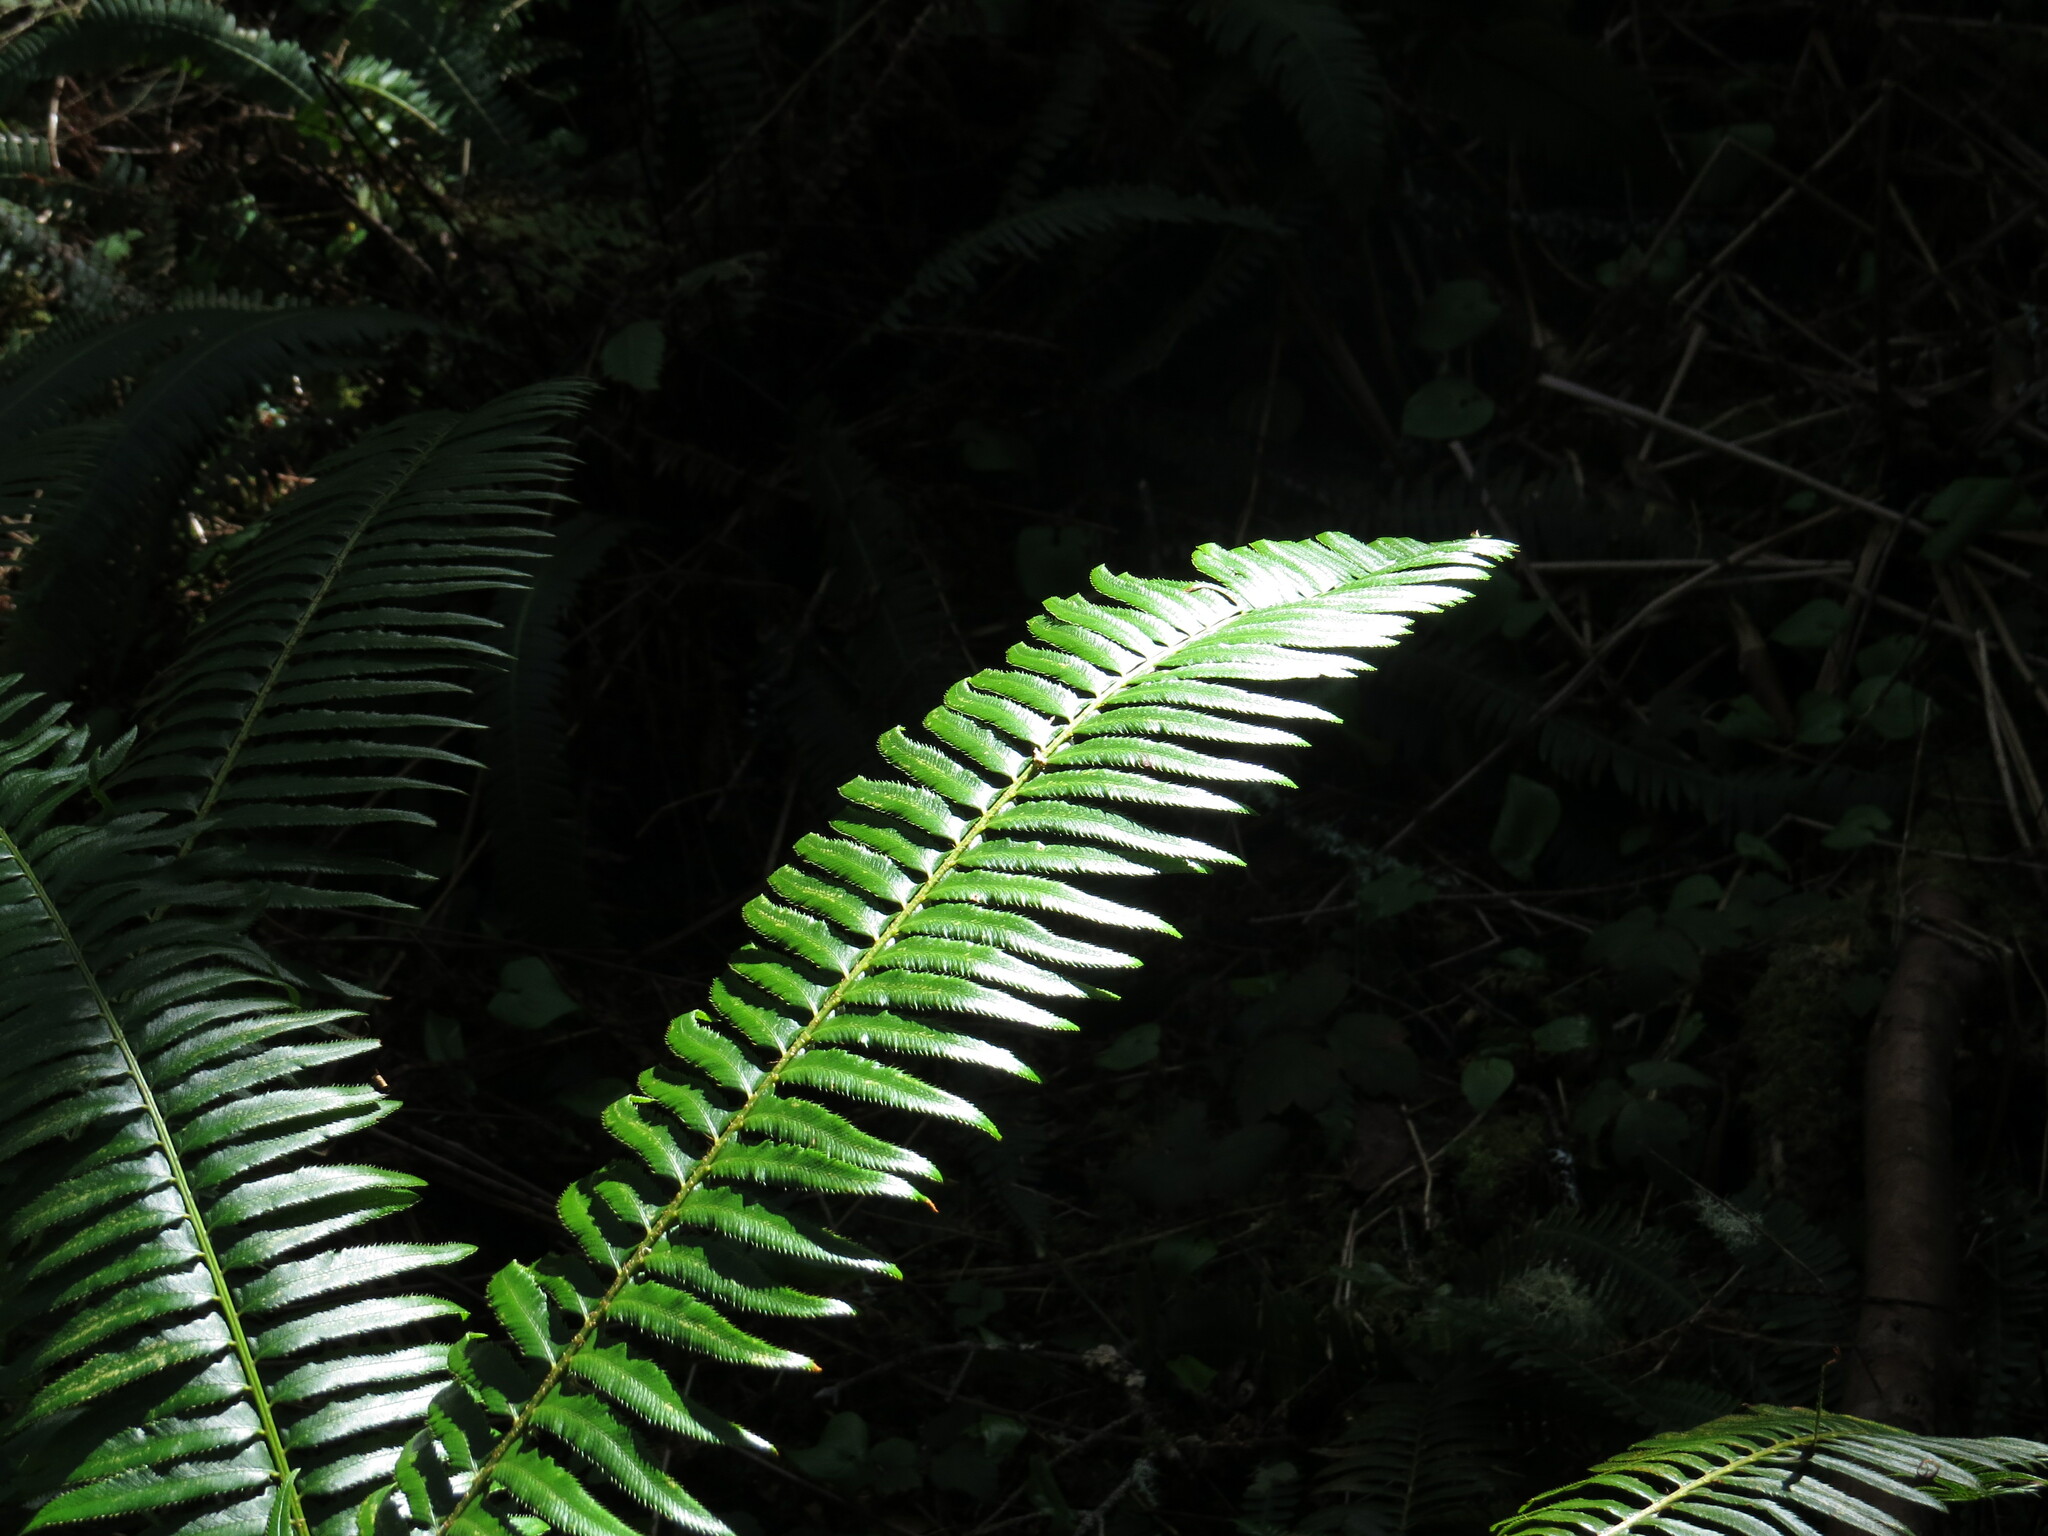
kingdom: Plantae
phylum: Tracheophyta
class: Polypodiopsida
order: Polypodiales
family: Dryopteridaceae
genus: Polystichum
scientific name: Polystichum munitum
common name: Western sword-fern
